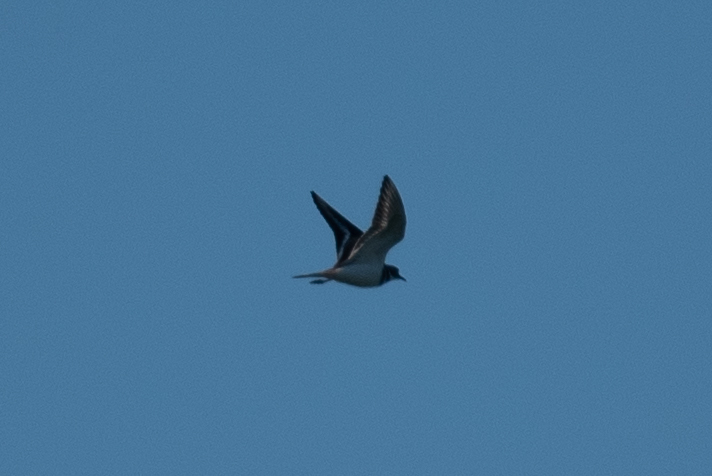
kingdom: Animalia
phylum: Chordata
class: Aves
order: Charadriiformes
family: Charadriidae
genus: Charadrius
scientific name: Charadrius vociferus
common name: Killdeer
